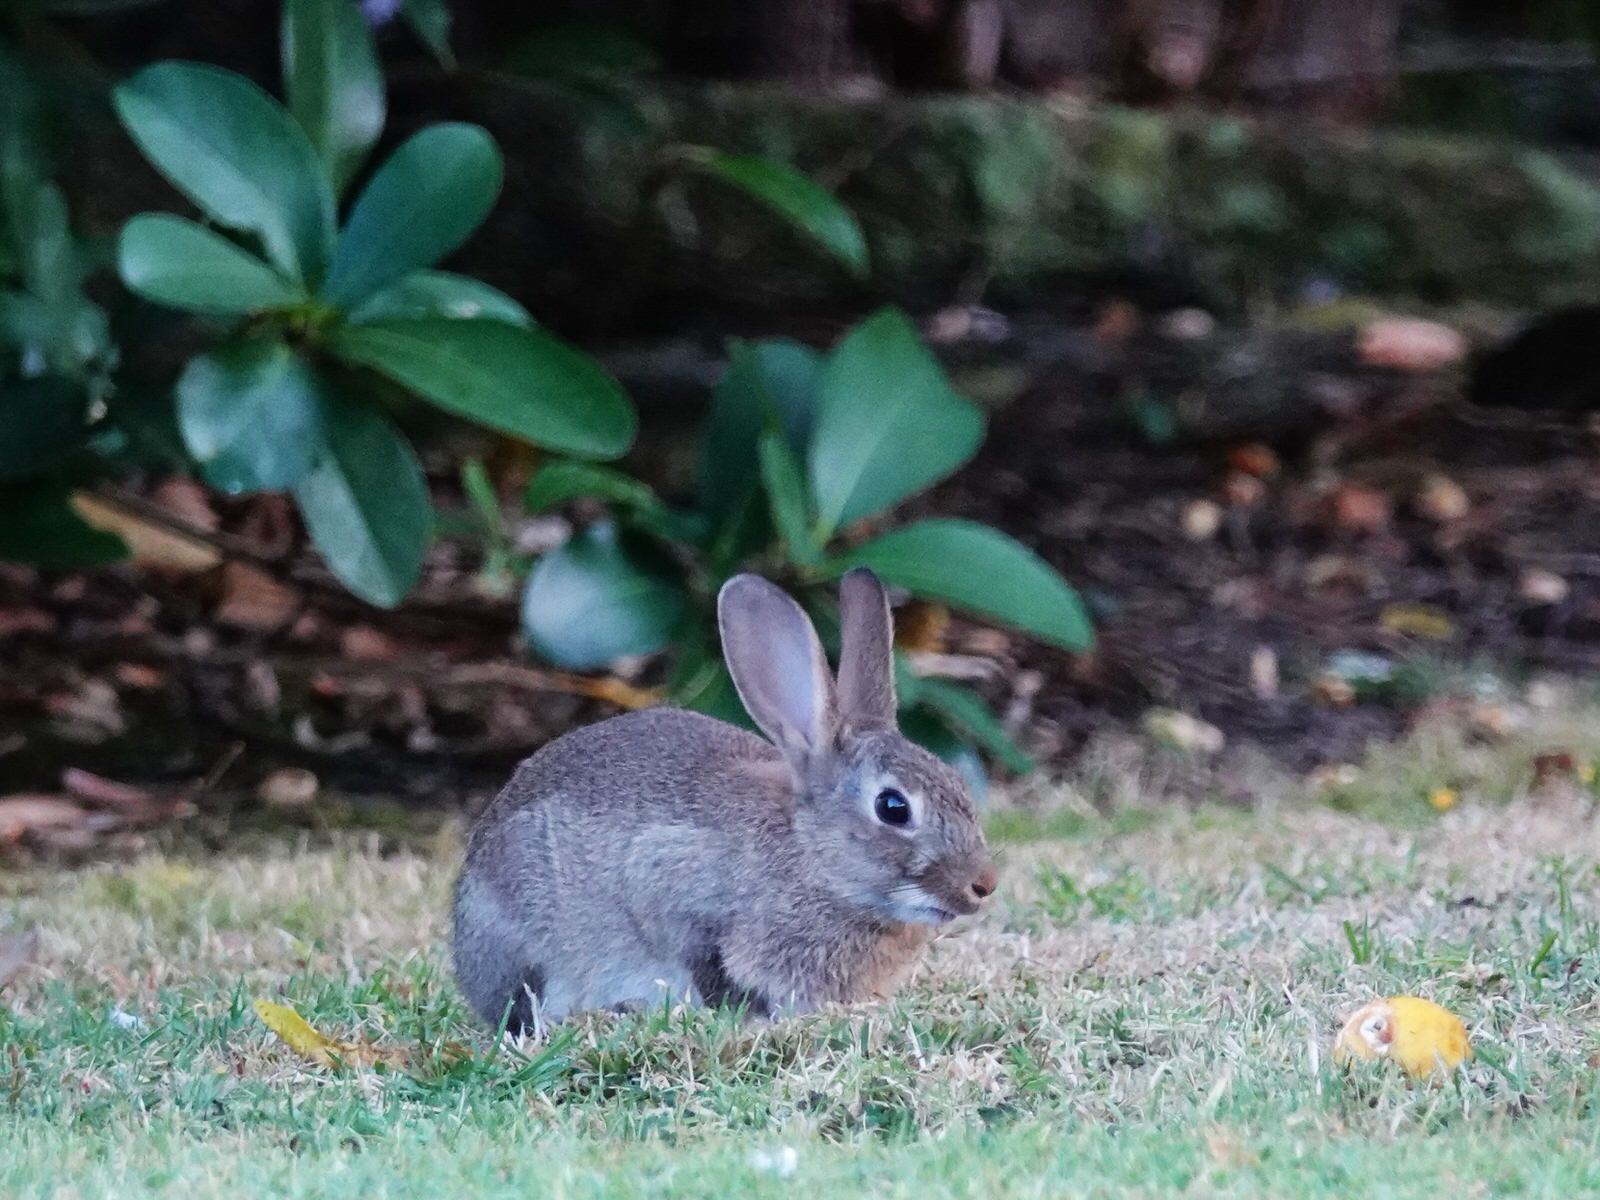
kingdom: Animalia
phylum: Chordata
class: Mammalia
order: Lagomorpha
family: Leporidae
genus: Oryctolagus
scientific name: Oryctolagus cuniculus
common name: European rabbit
